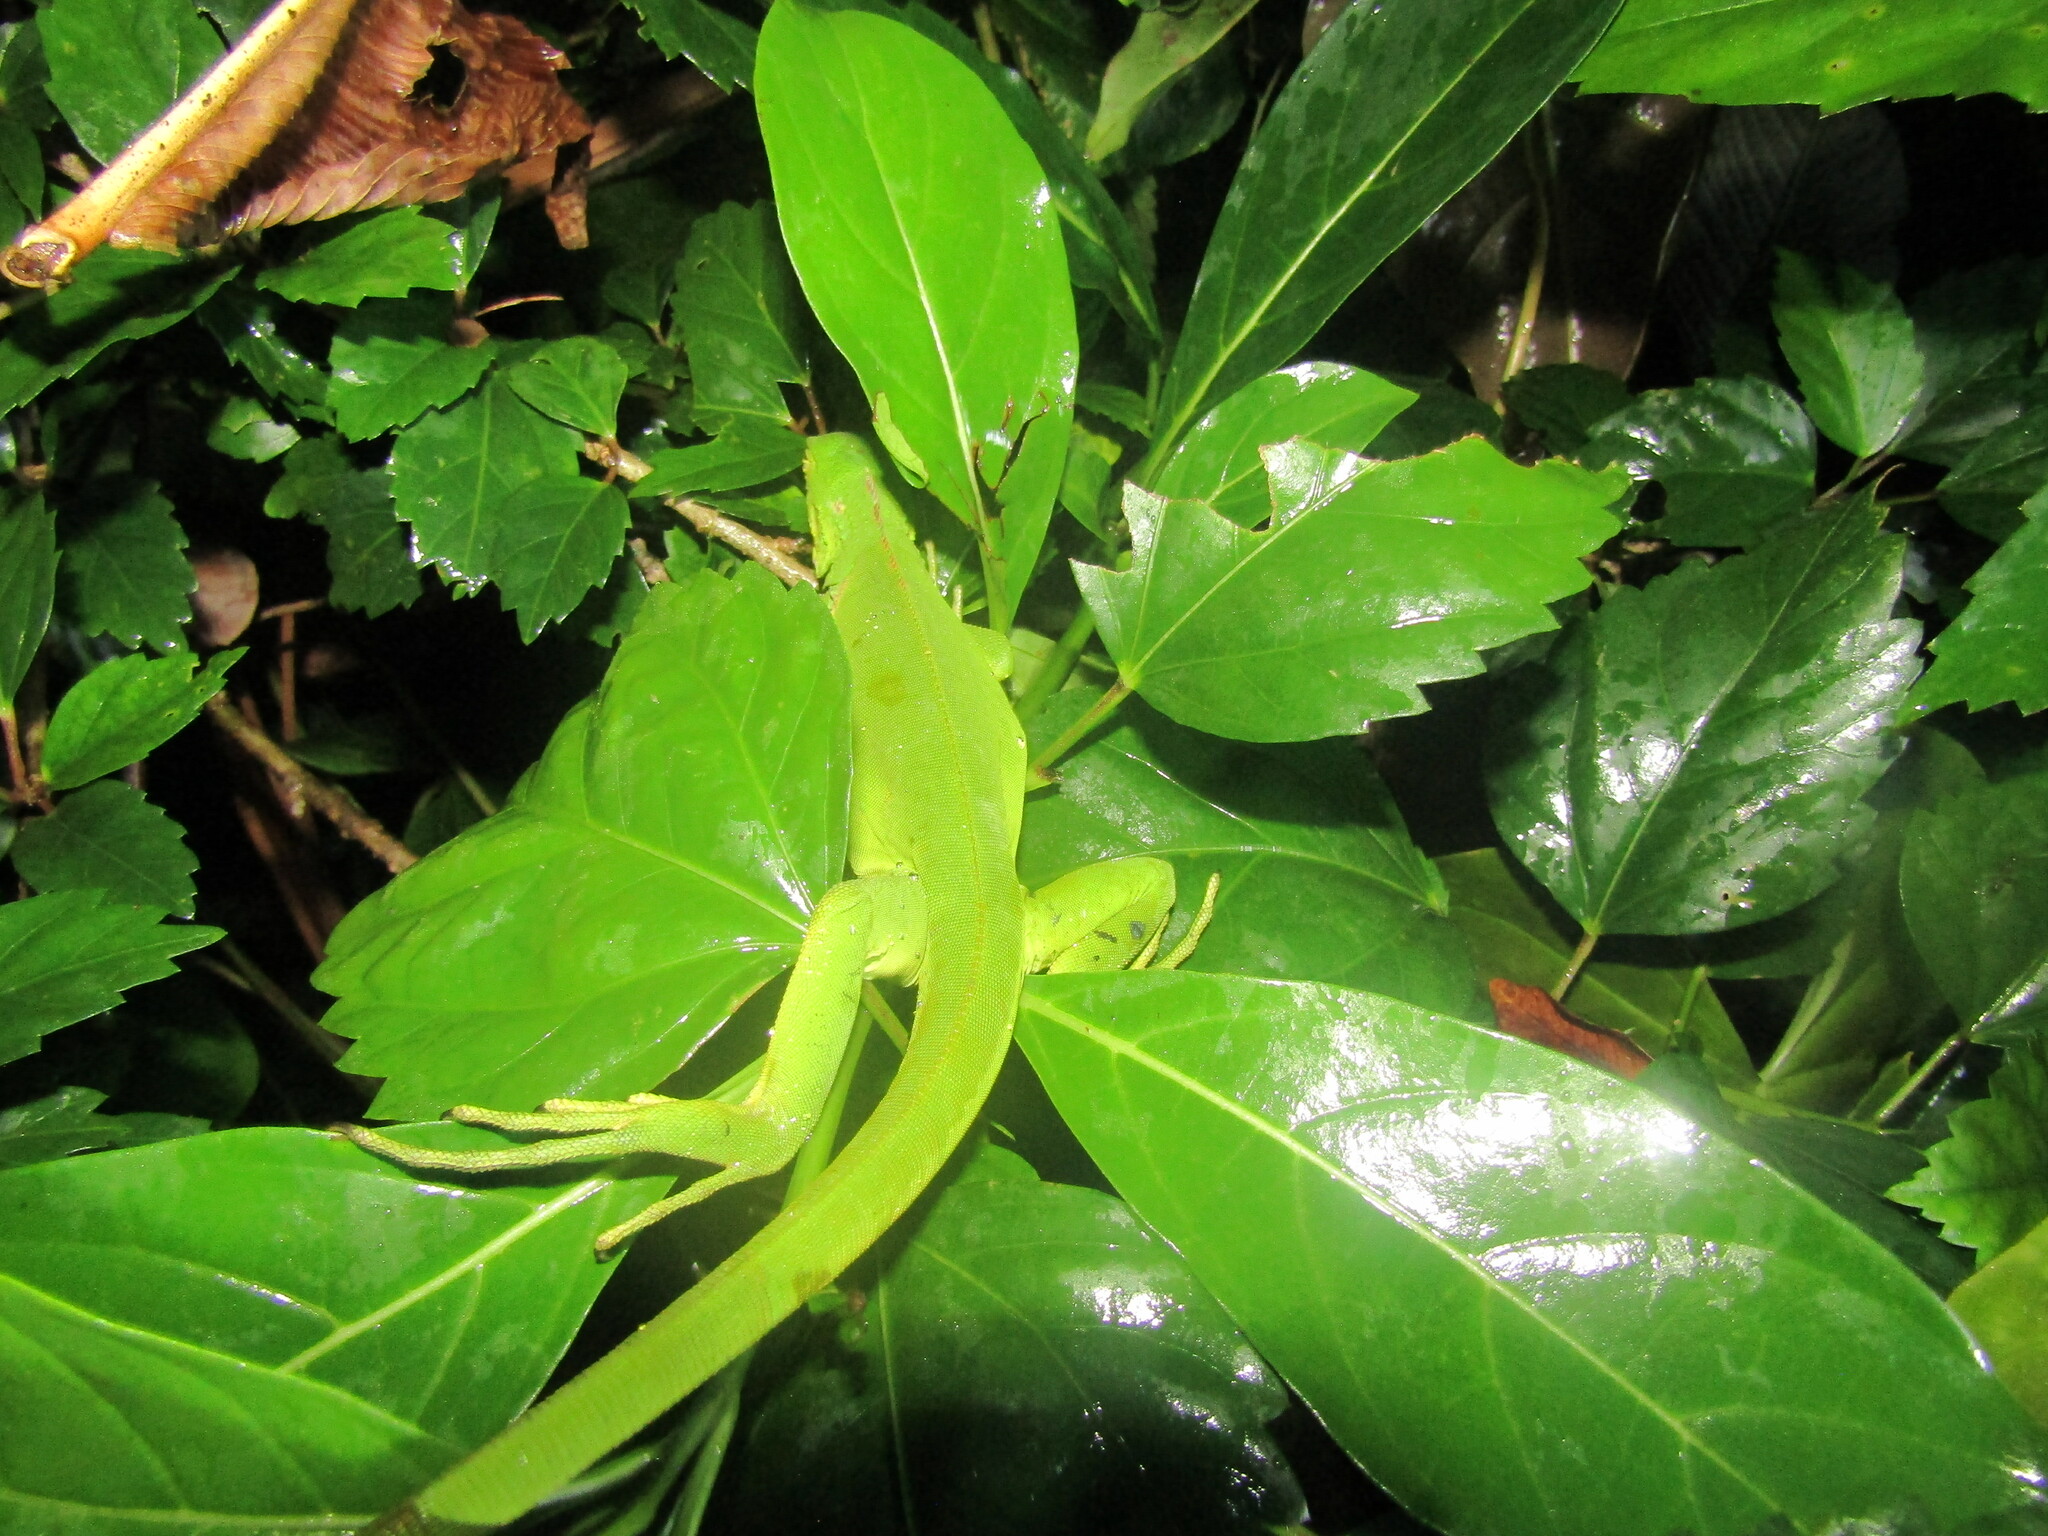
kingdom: Animalia
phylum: Chordata
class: Squamata
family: Iguanidae
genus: Iguana
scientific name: Iguana iguana
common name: Green iguana
